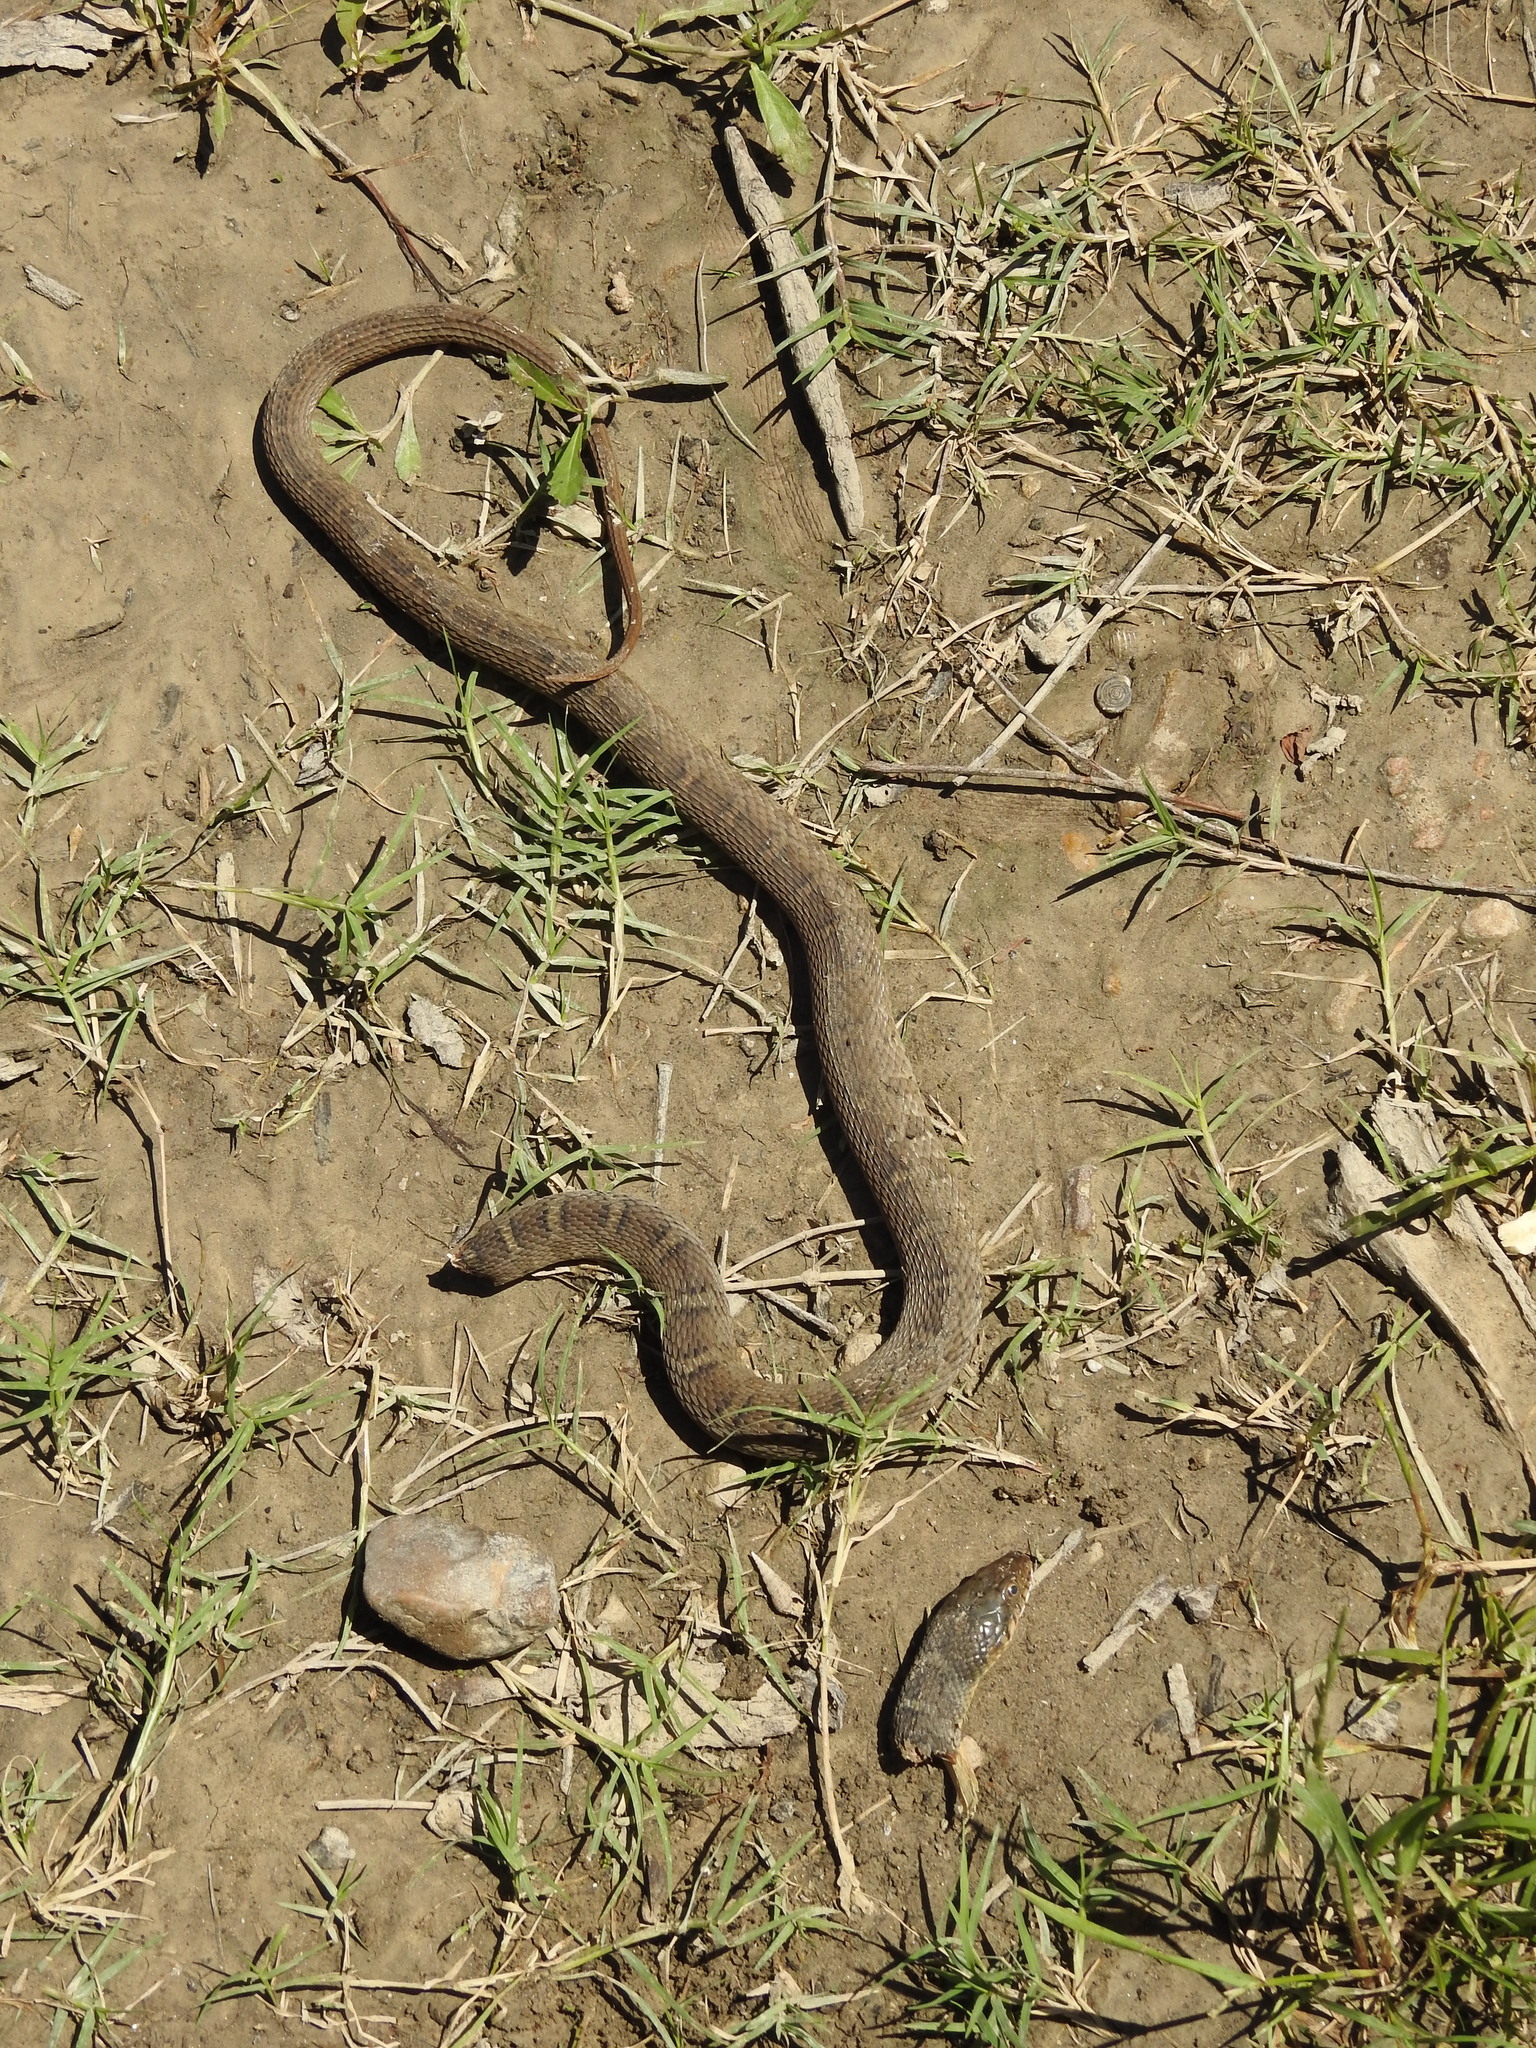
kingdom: Animalia
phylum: Chordata
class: Squamata
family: Colubridae
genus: Nerodia
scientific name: Nerodia erythrogaster
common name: Plainbelly water snake
